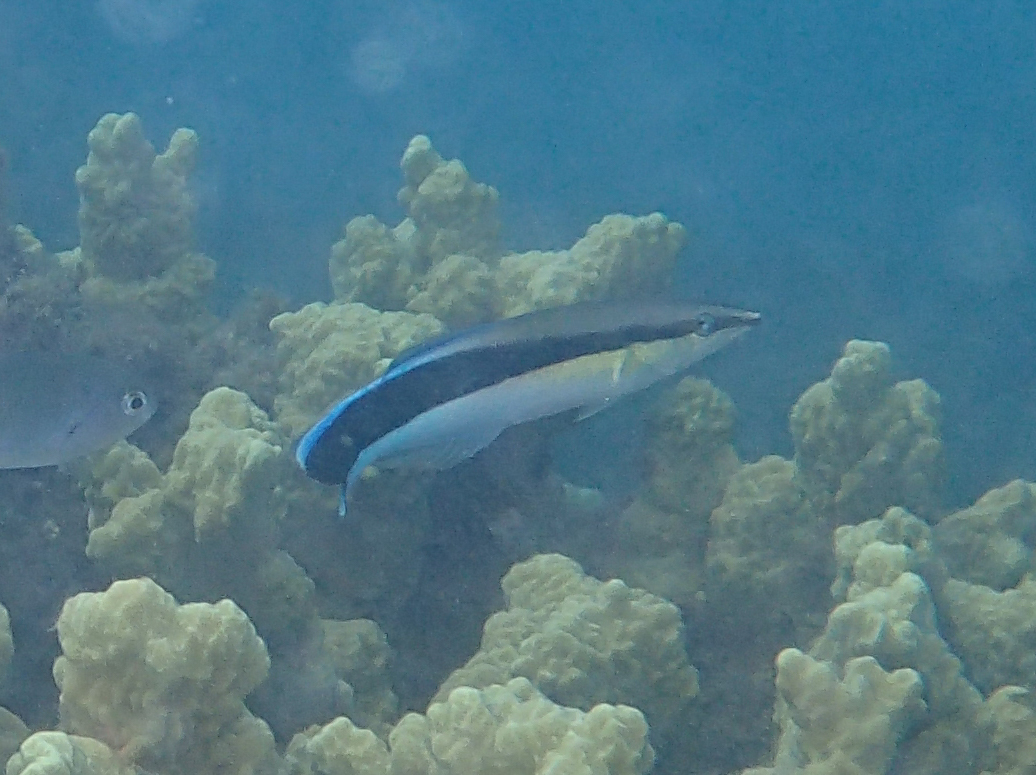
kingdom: Animalia
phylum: Chordata
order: Perciformes
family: Labridae
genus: Labroides
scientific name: Labroides dimidiatus
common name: Blue diesel wrasse
